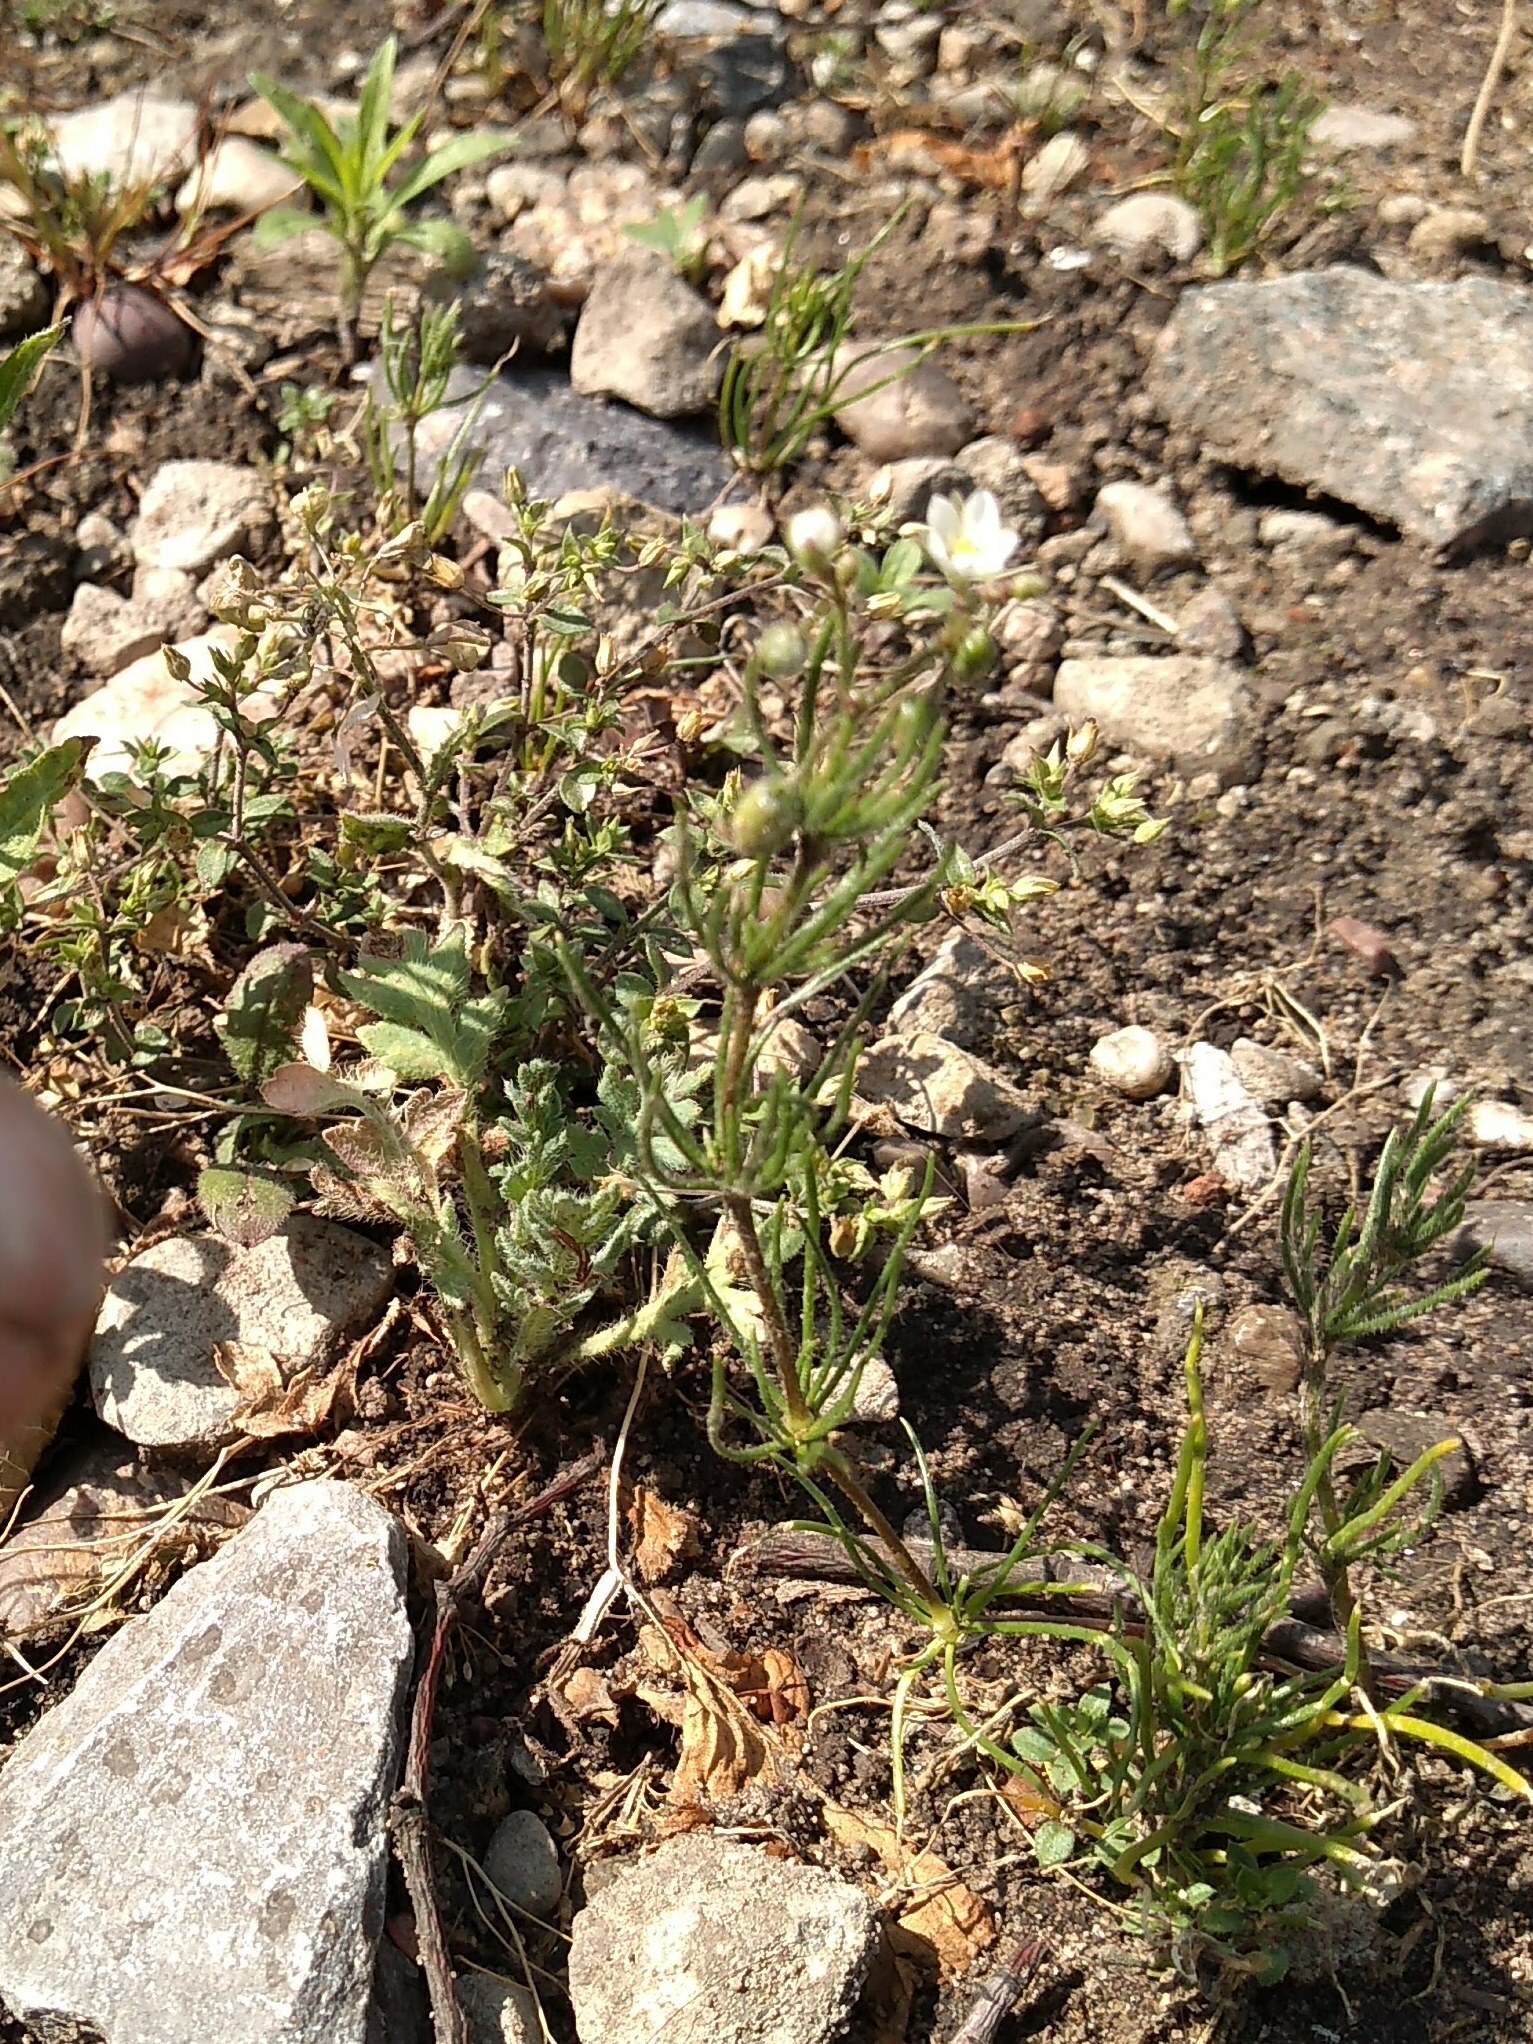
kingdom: Plantae
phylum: Tracheophyta
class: Magnoliopsida
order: Caryophyllales
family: Caryophyllaceae
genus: Spergula
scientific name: Spergula arvensis
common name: Corn spurrey
